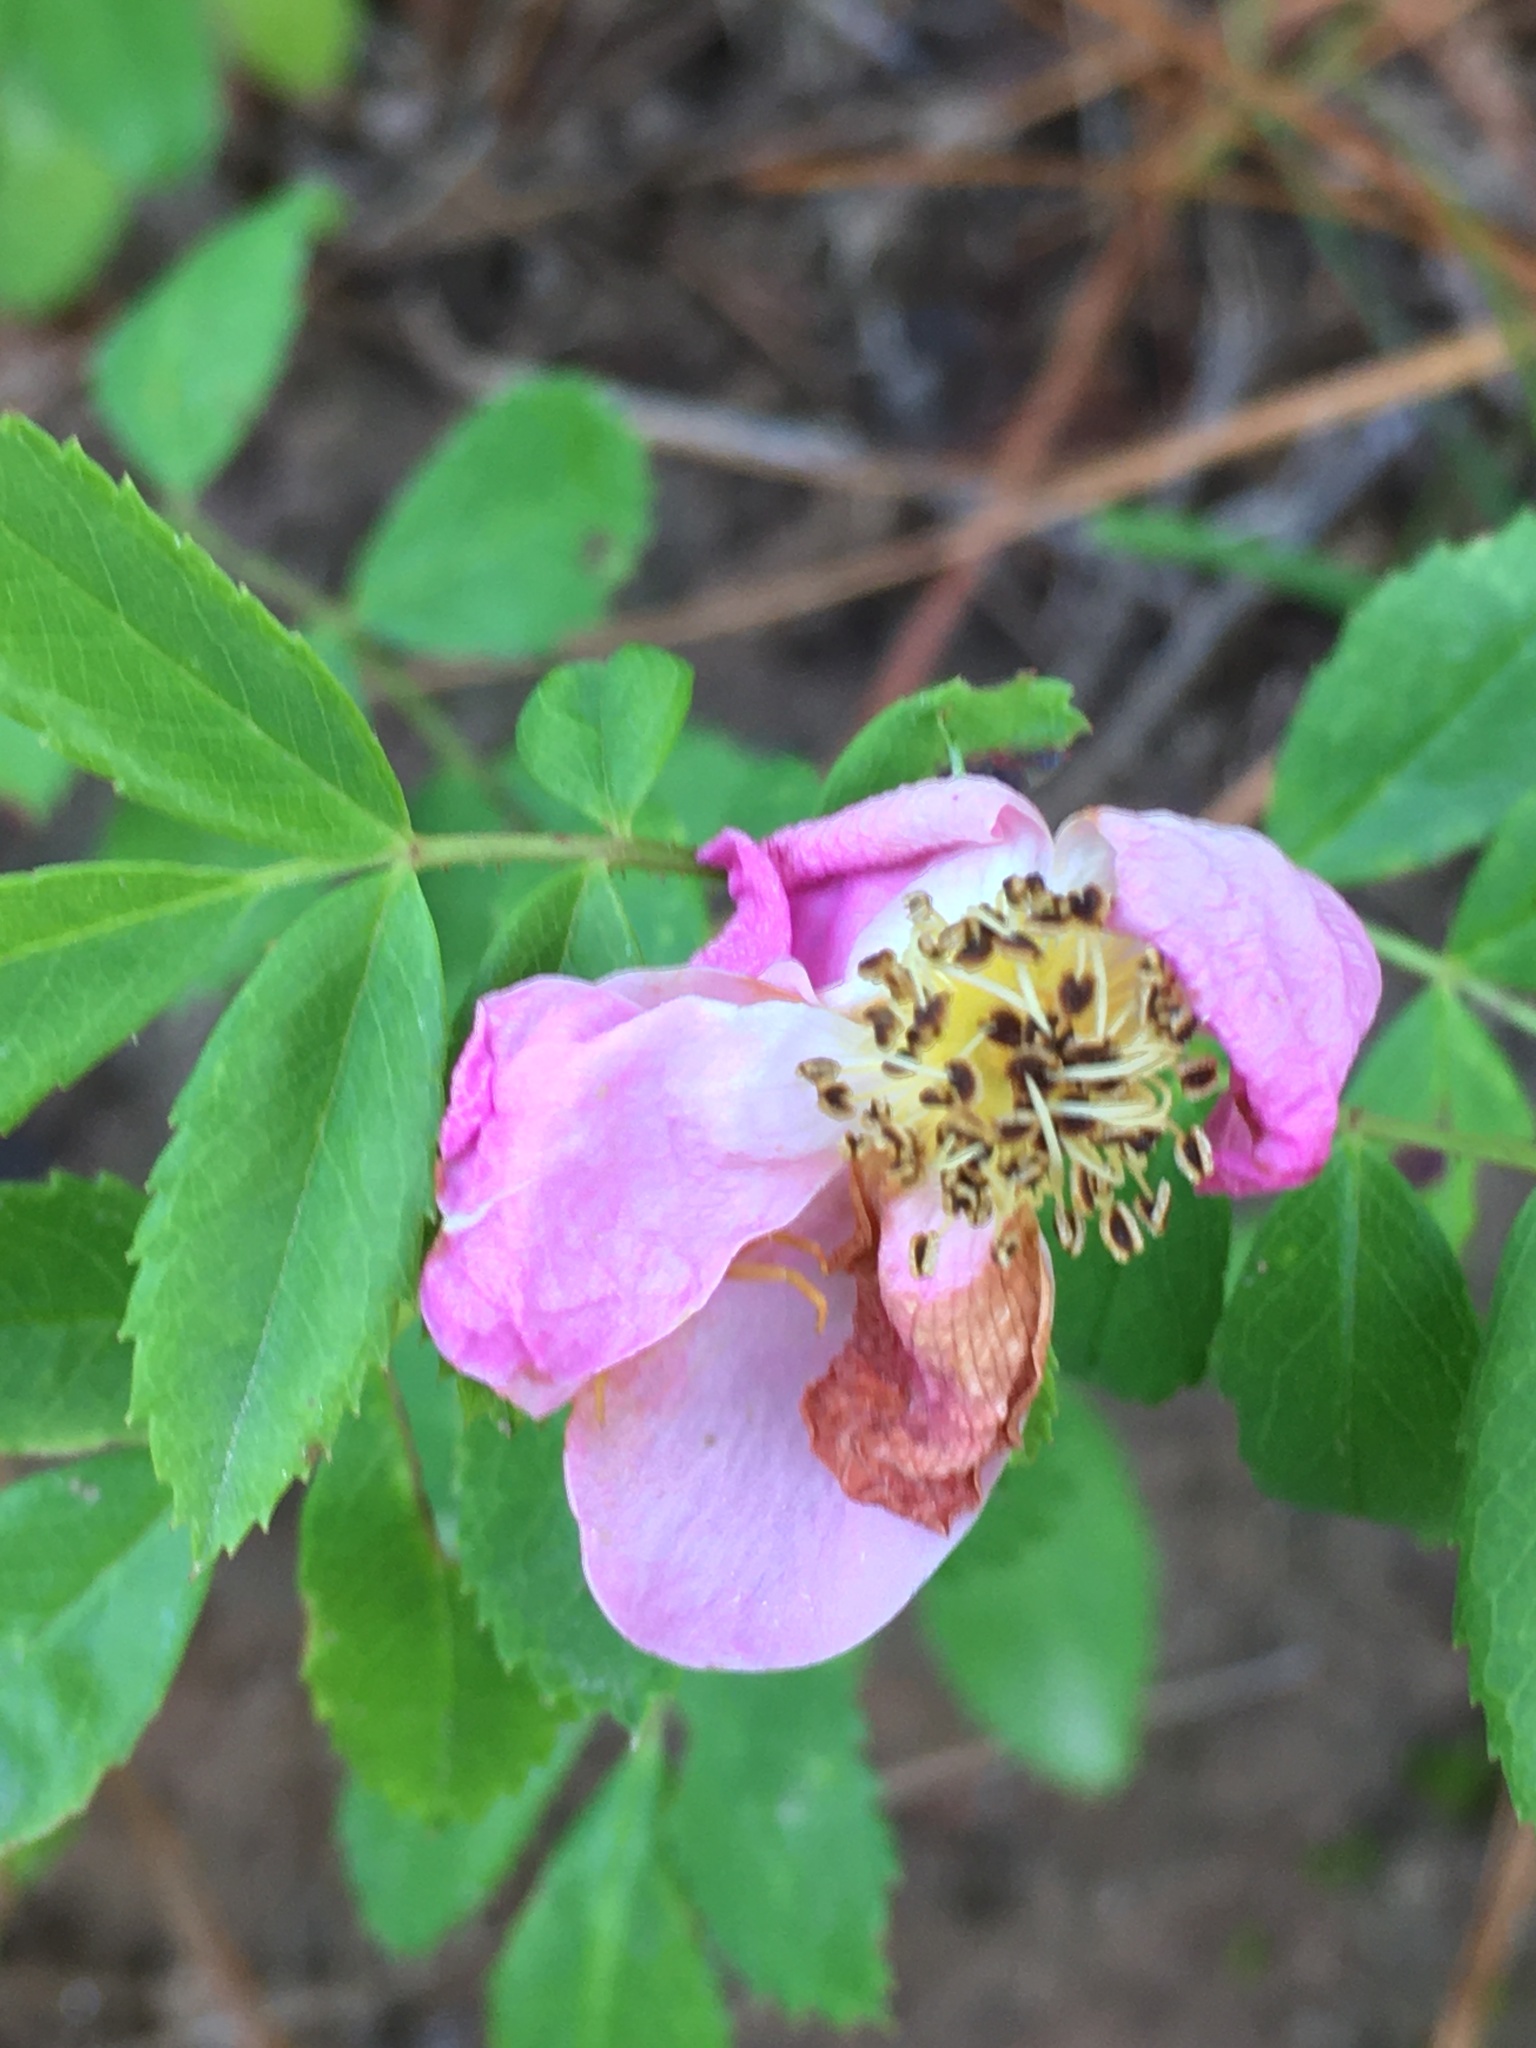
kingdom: Plantae
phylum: Tracheophyta
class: Magnoliopsida
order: Rosales
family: Rosaceae
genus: Rosa
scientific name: Rosa carolina
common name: Pasture rose
